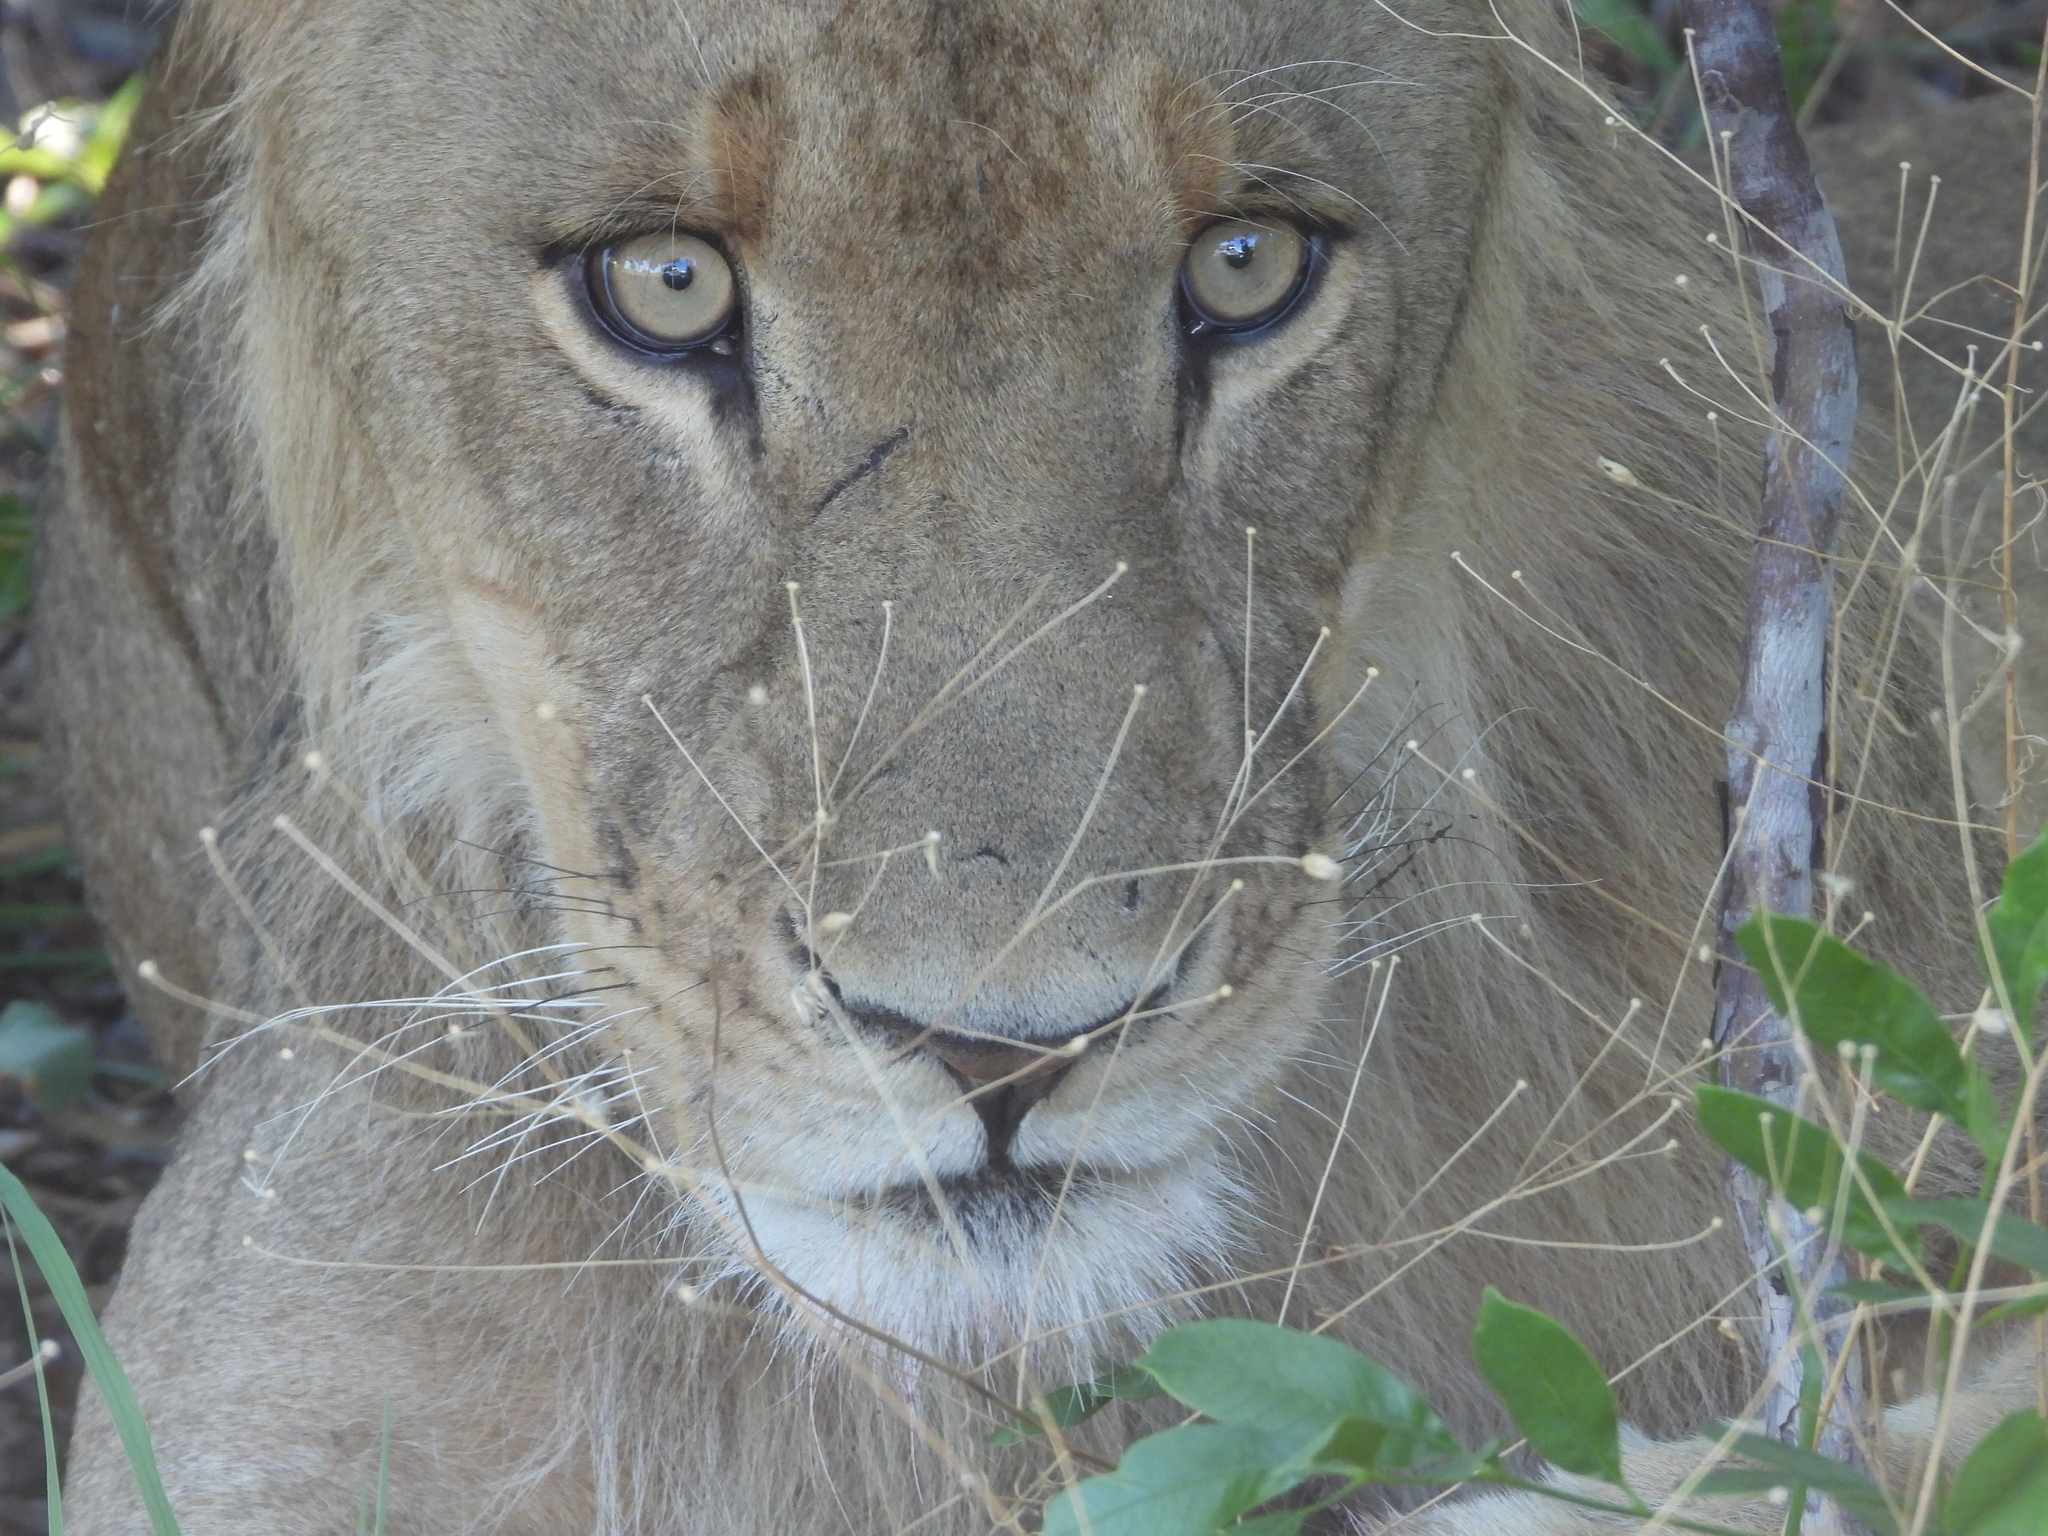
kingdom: Animalia
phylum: Chordata
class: Mammalia
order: Carnivora
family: Felidae
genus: Panthera
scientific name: Panthera leo
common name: Lion
